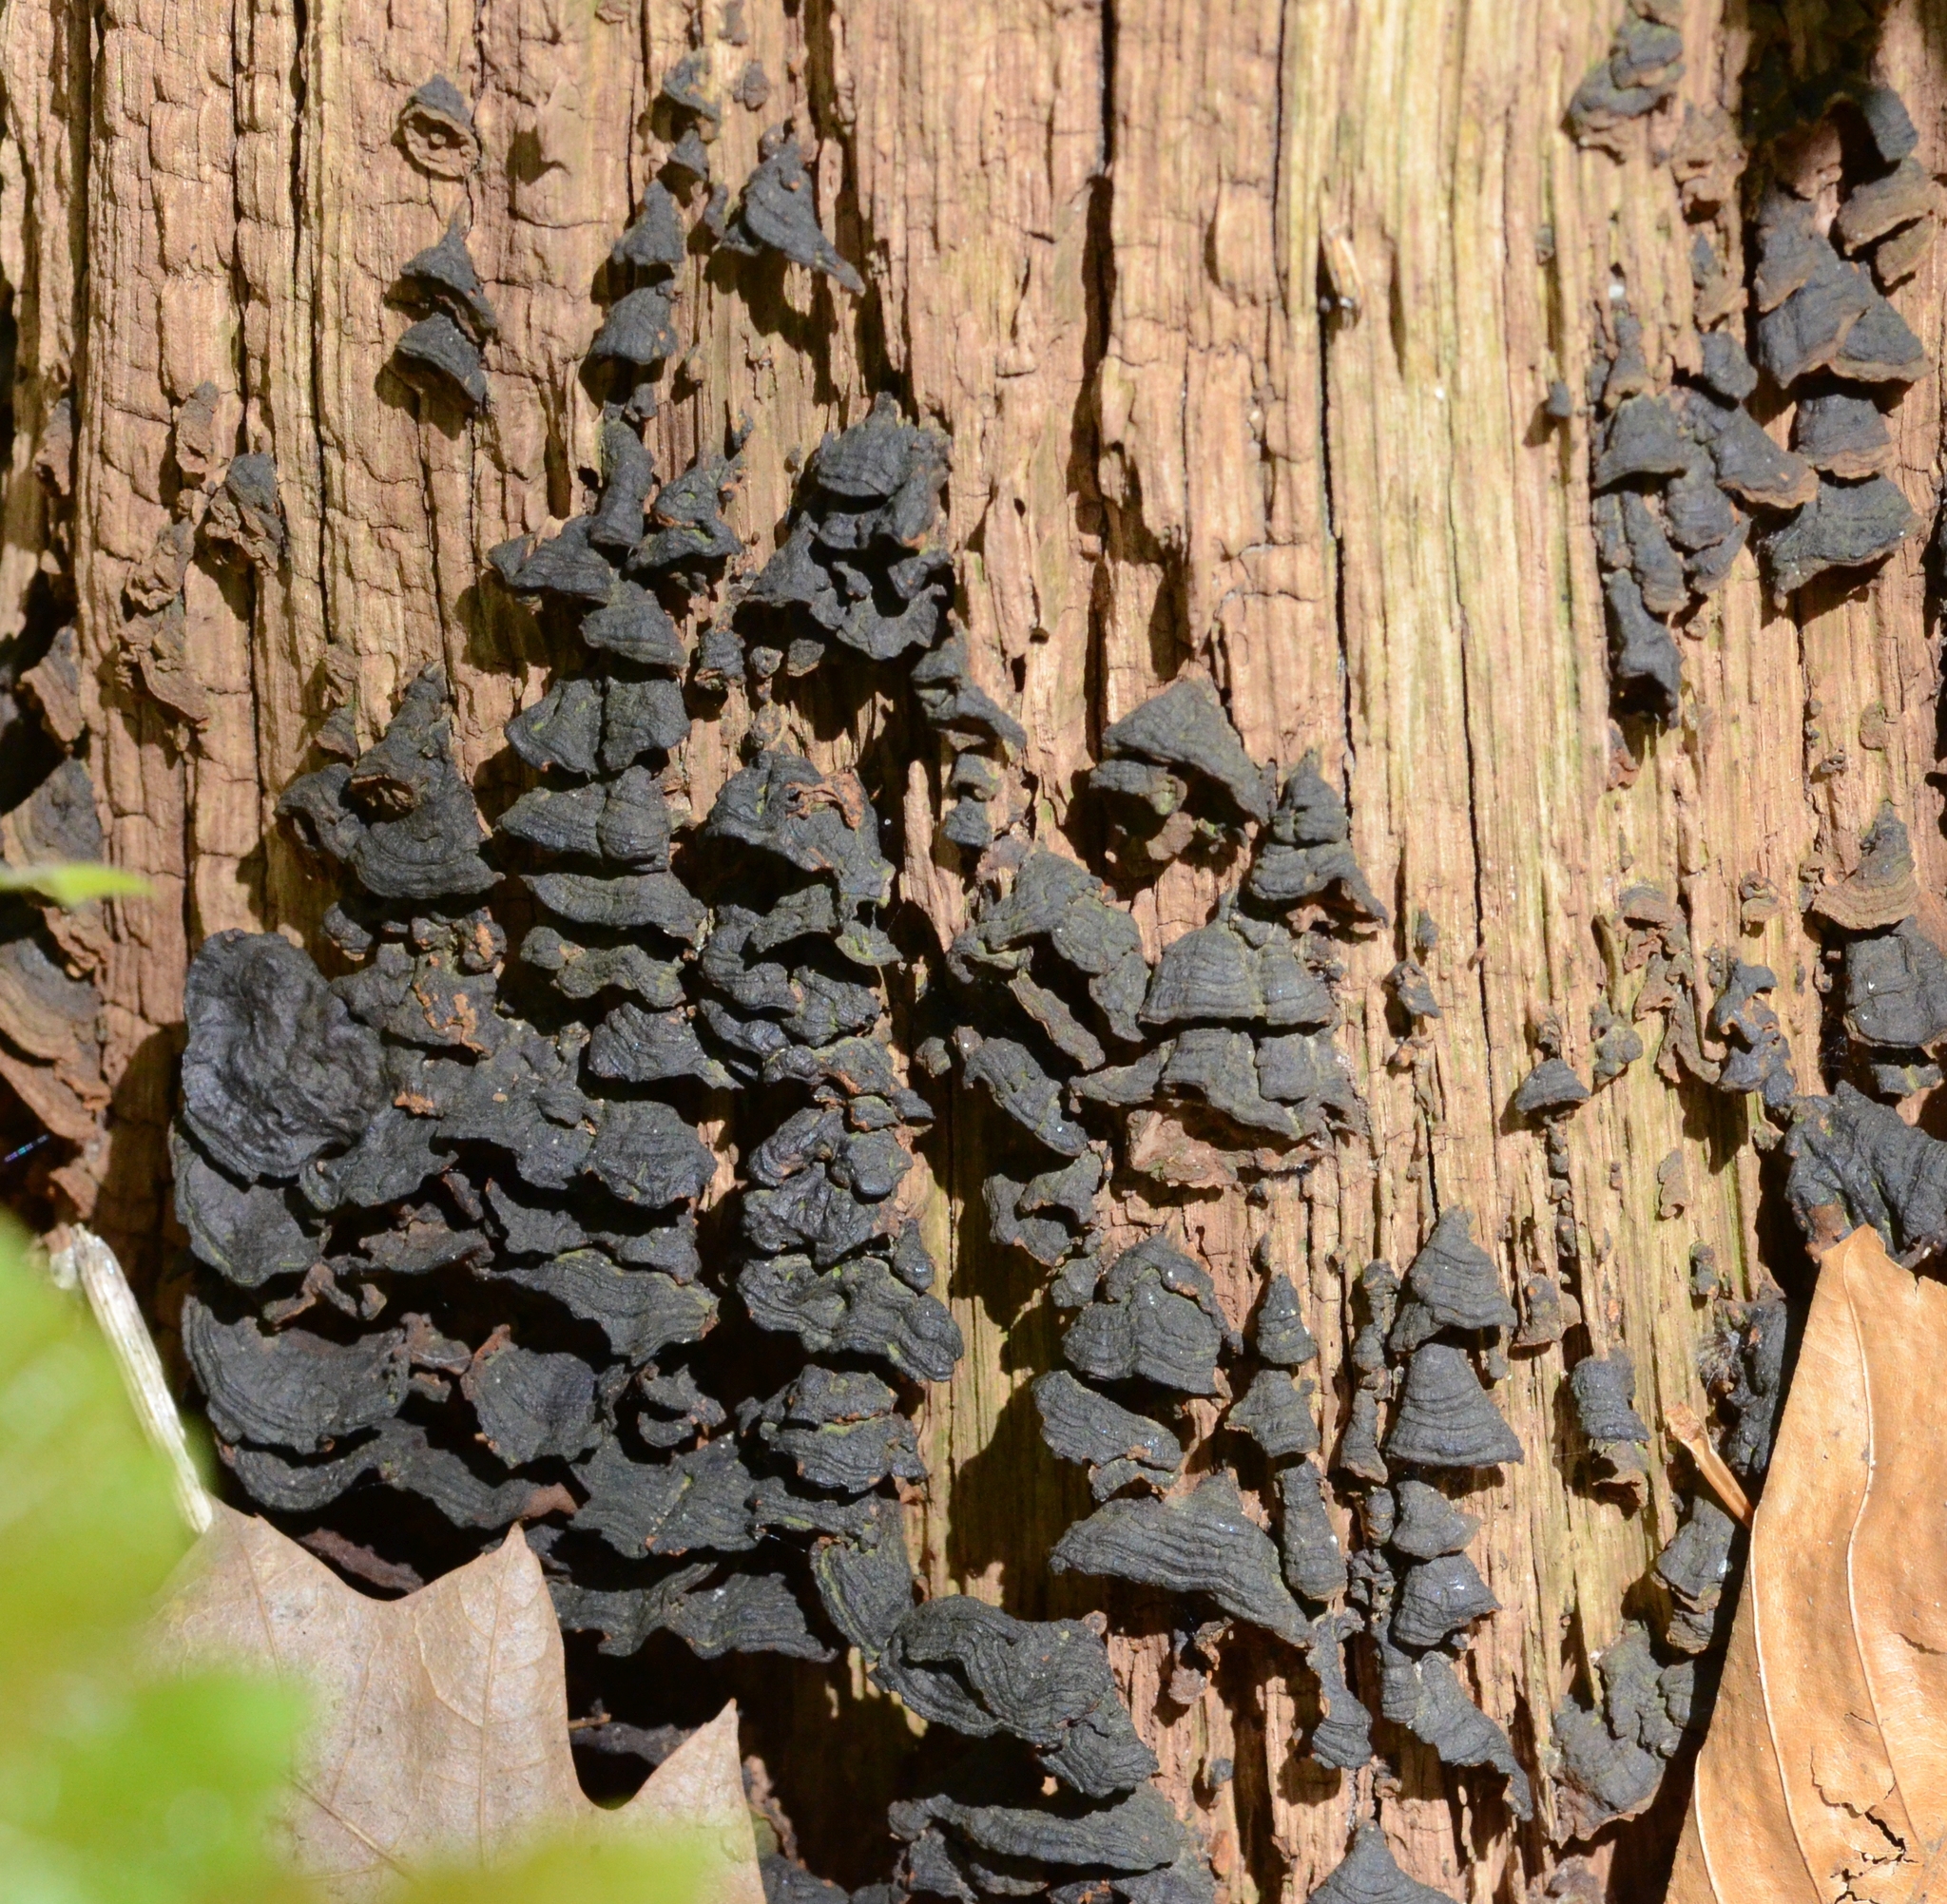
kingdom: Fungi
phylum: Basidiomycota
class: Agaricomycetes
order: Hymenochaetales
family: Hymenochaetaceae
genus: Hymenochaete
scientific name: Hymenochaete rubiginosa
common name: Oak curtain crust
